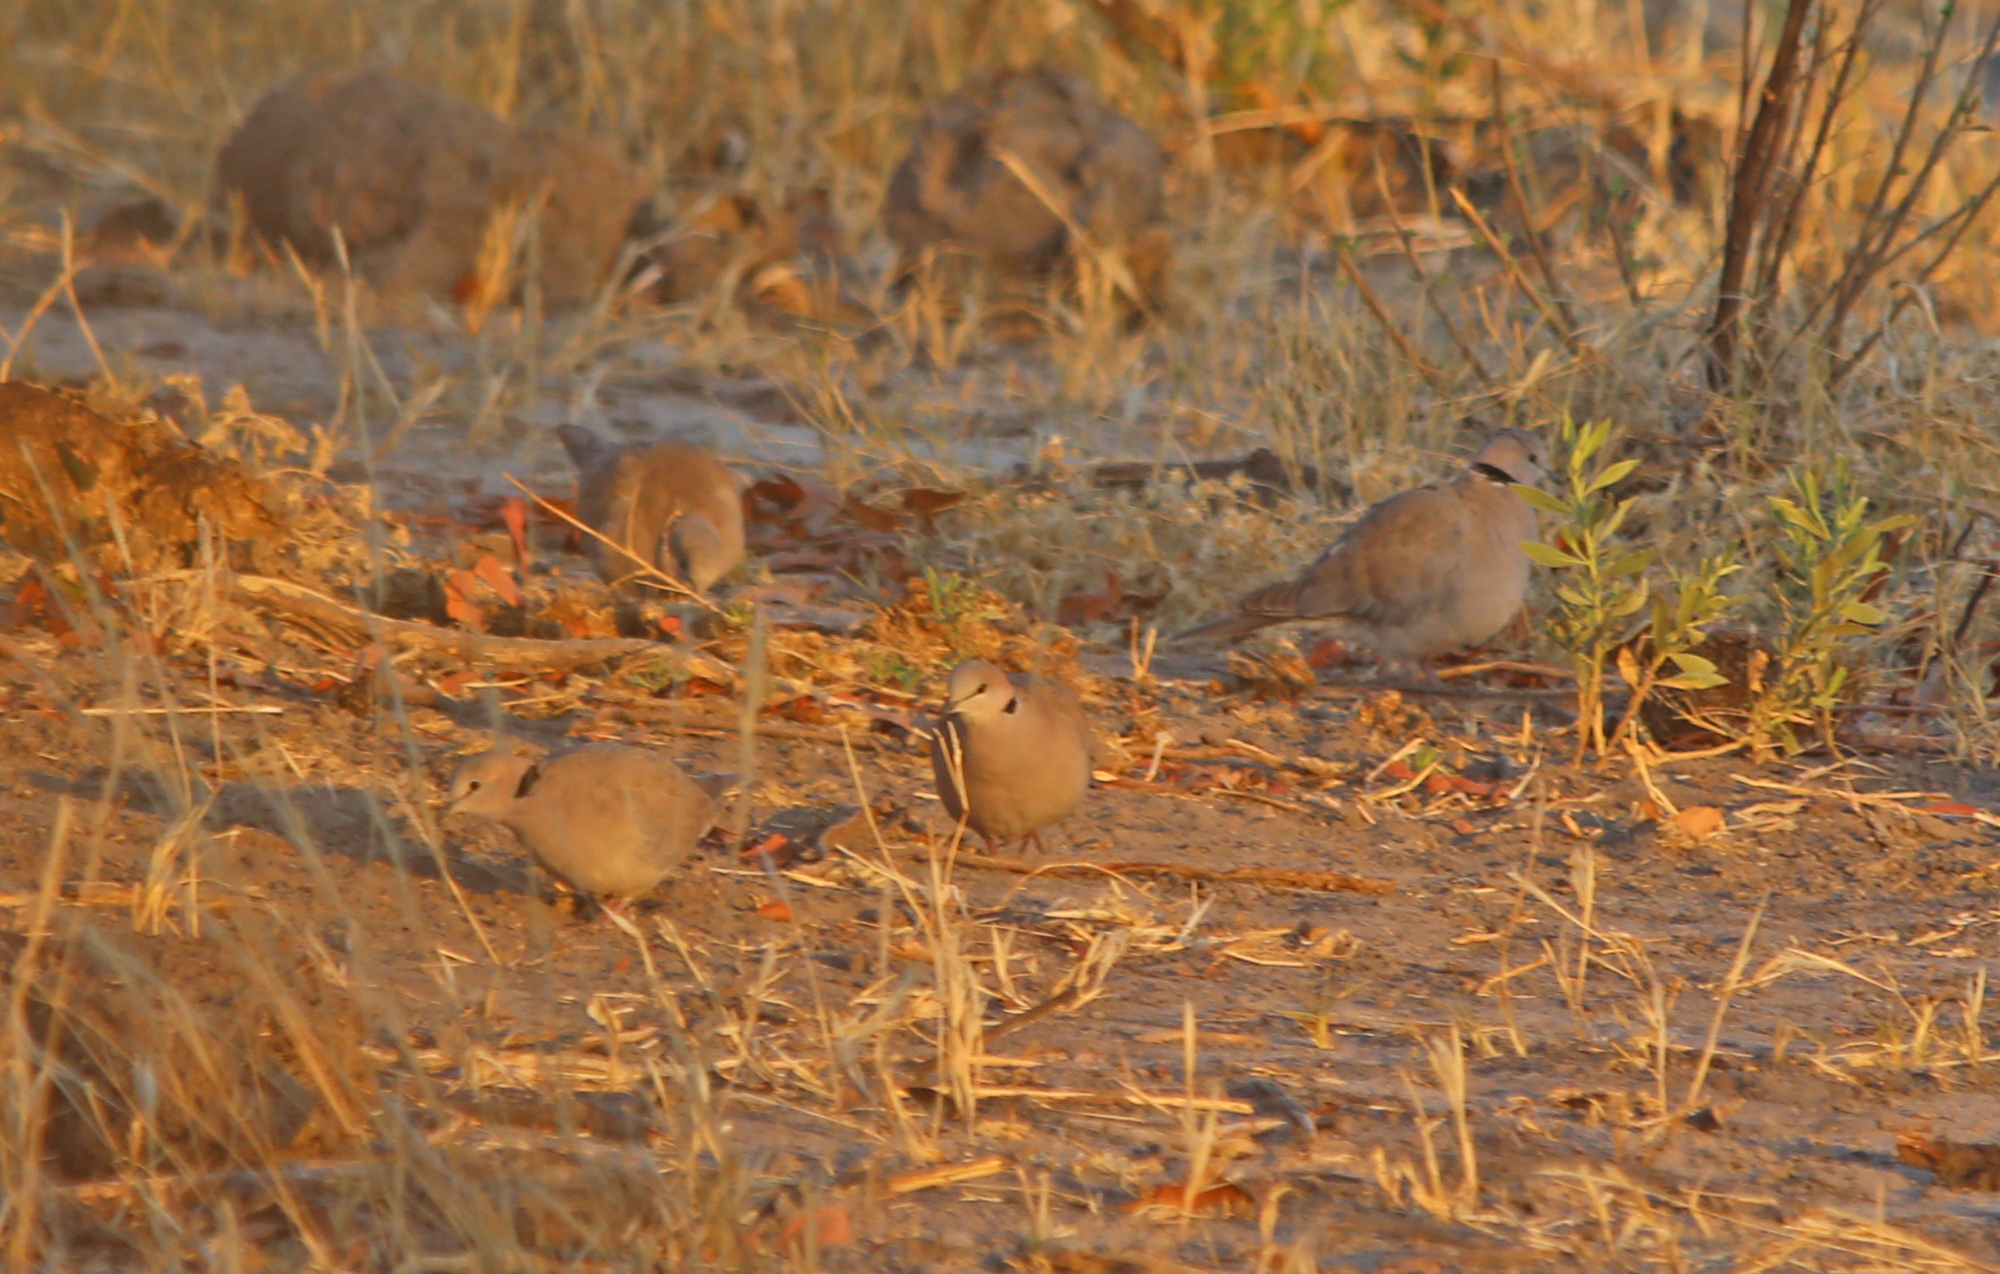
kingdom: Animalia
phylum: Chordata
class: Aves
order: Columbiformes
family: Columbidae
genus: Streptopelia
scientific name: Streptopelia capicola
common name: Ring-necked dove
